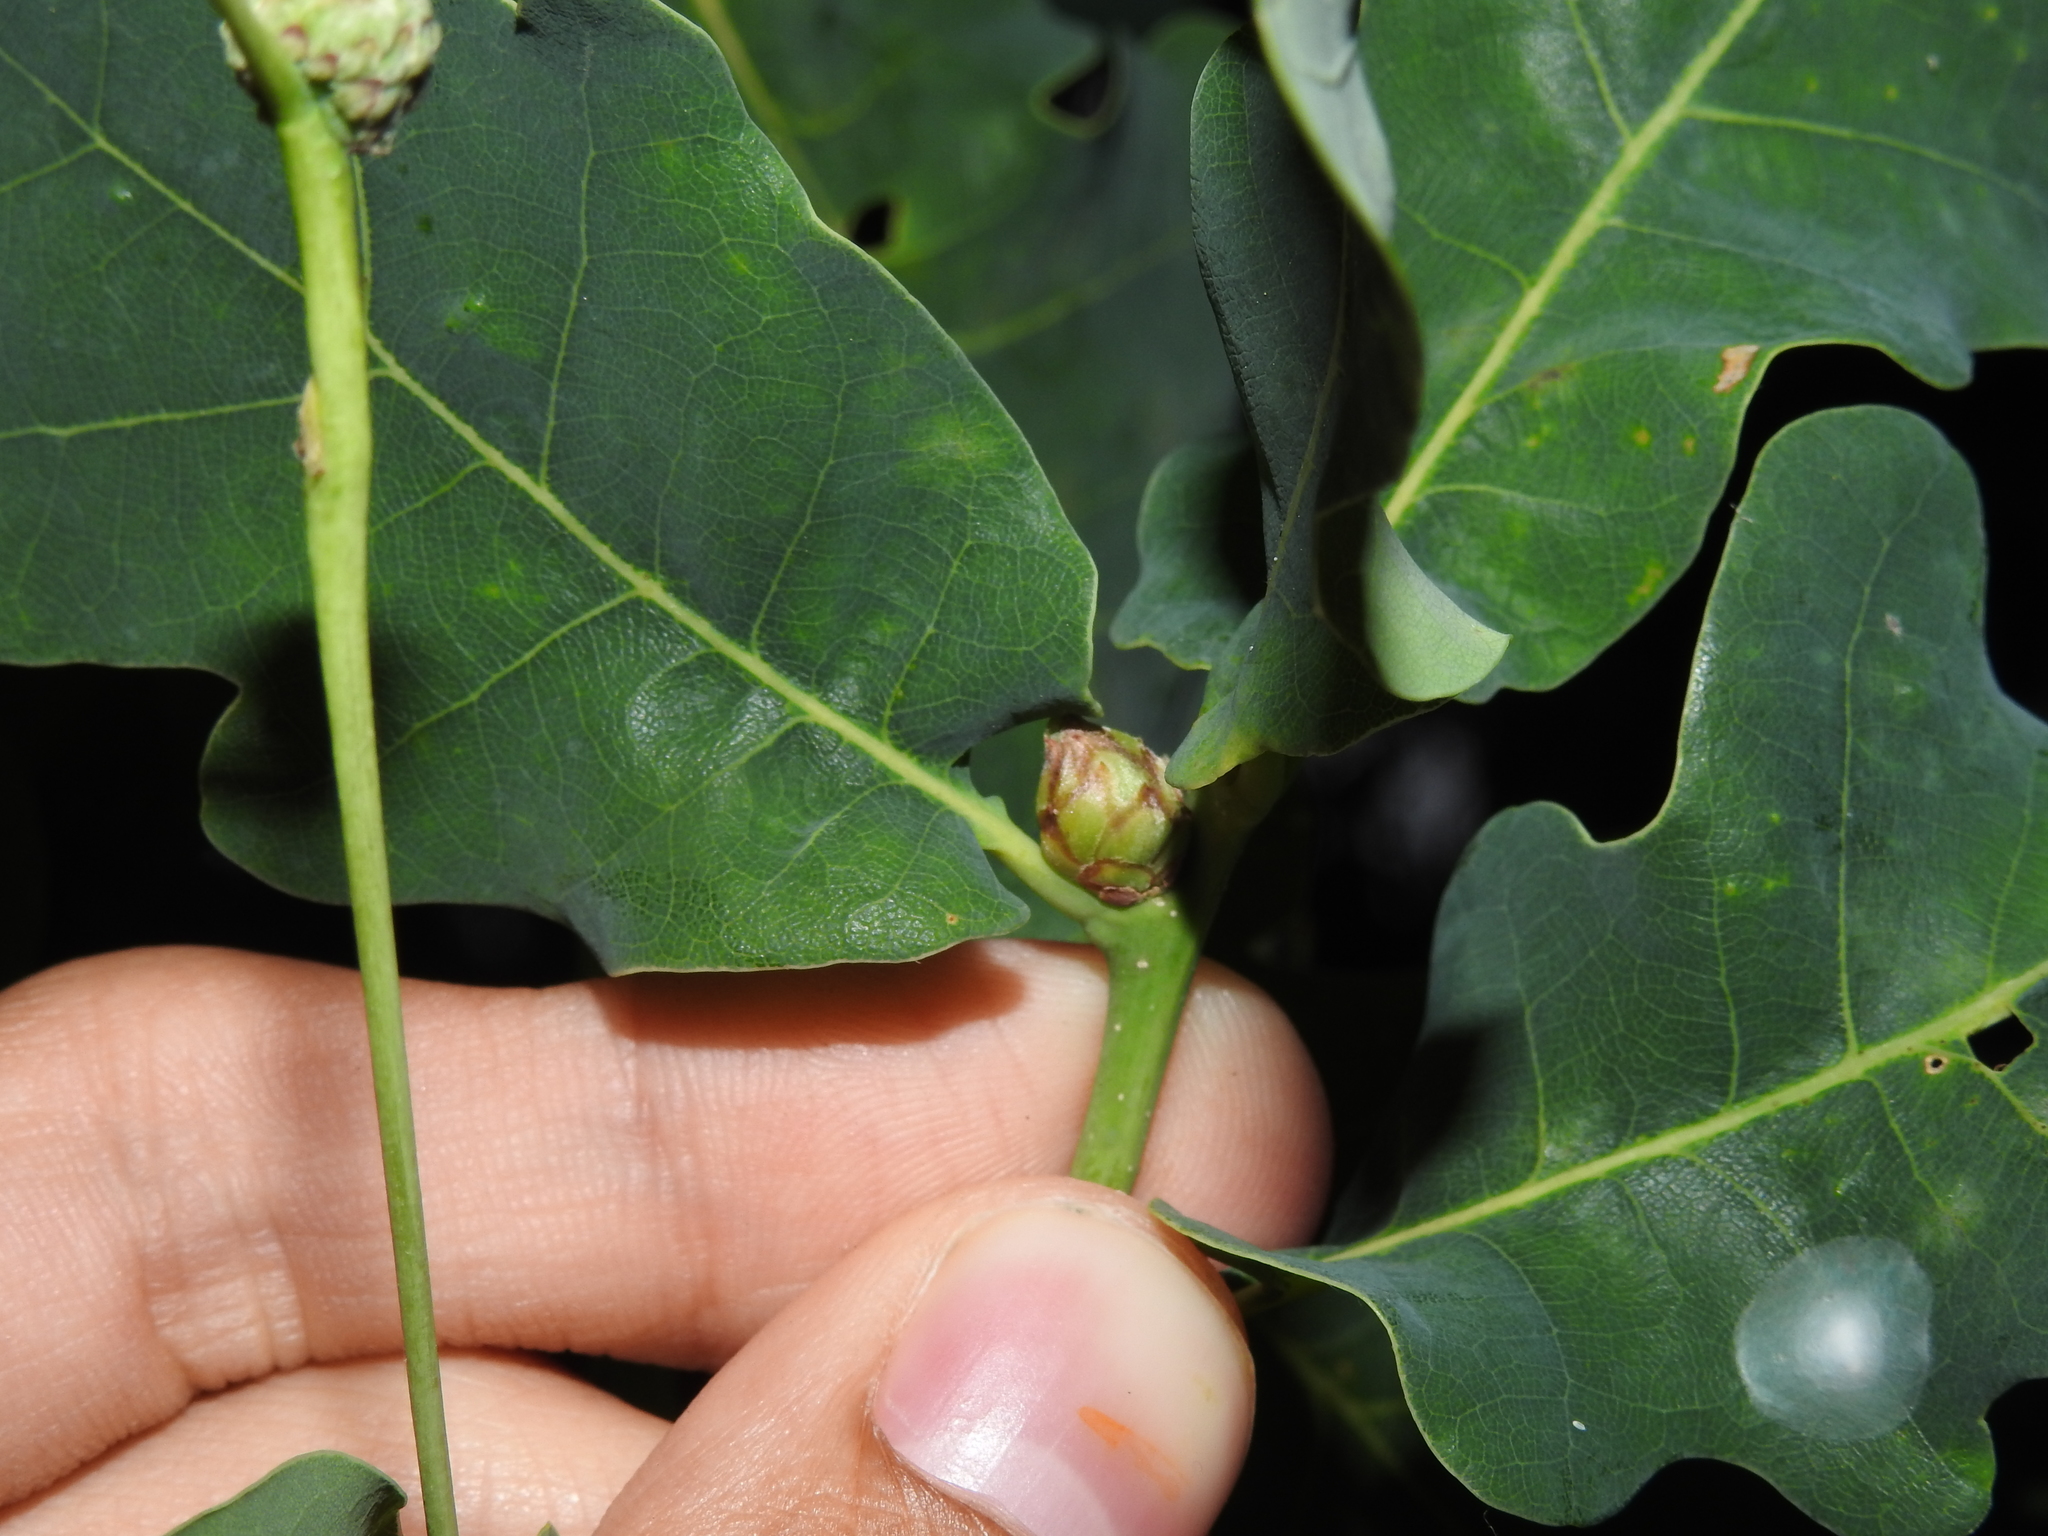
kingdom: Animalia
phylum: Arthropoda
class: Insecta
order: Hymenoptera
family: Cynipidae
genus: Andricus
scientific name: Andricus foecundatrix
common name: Artichoke gall
